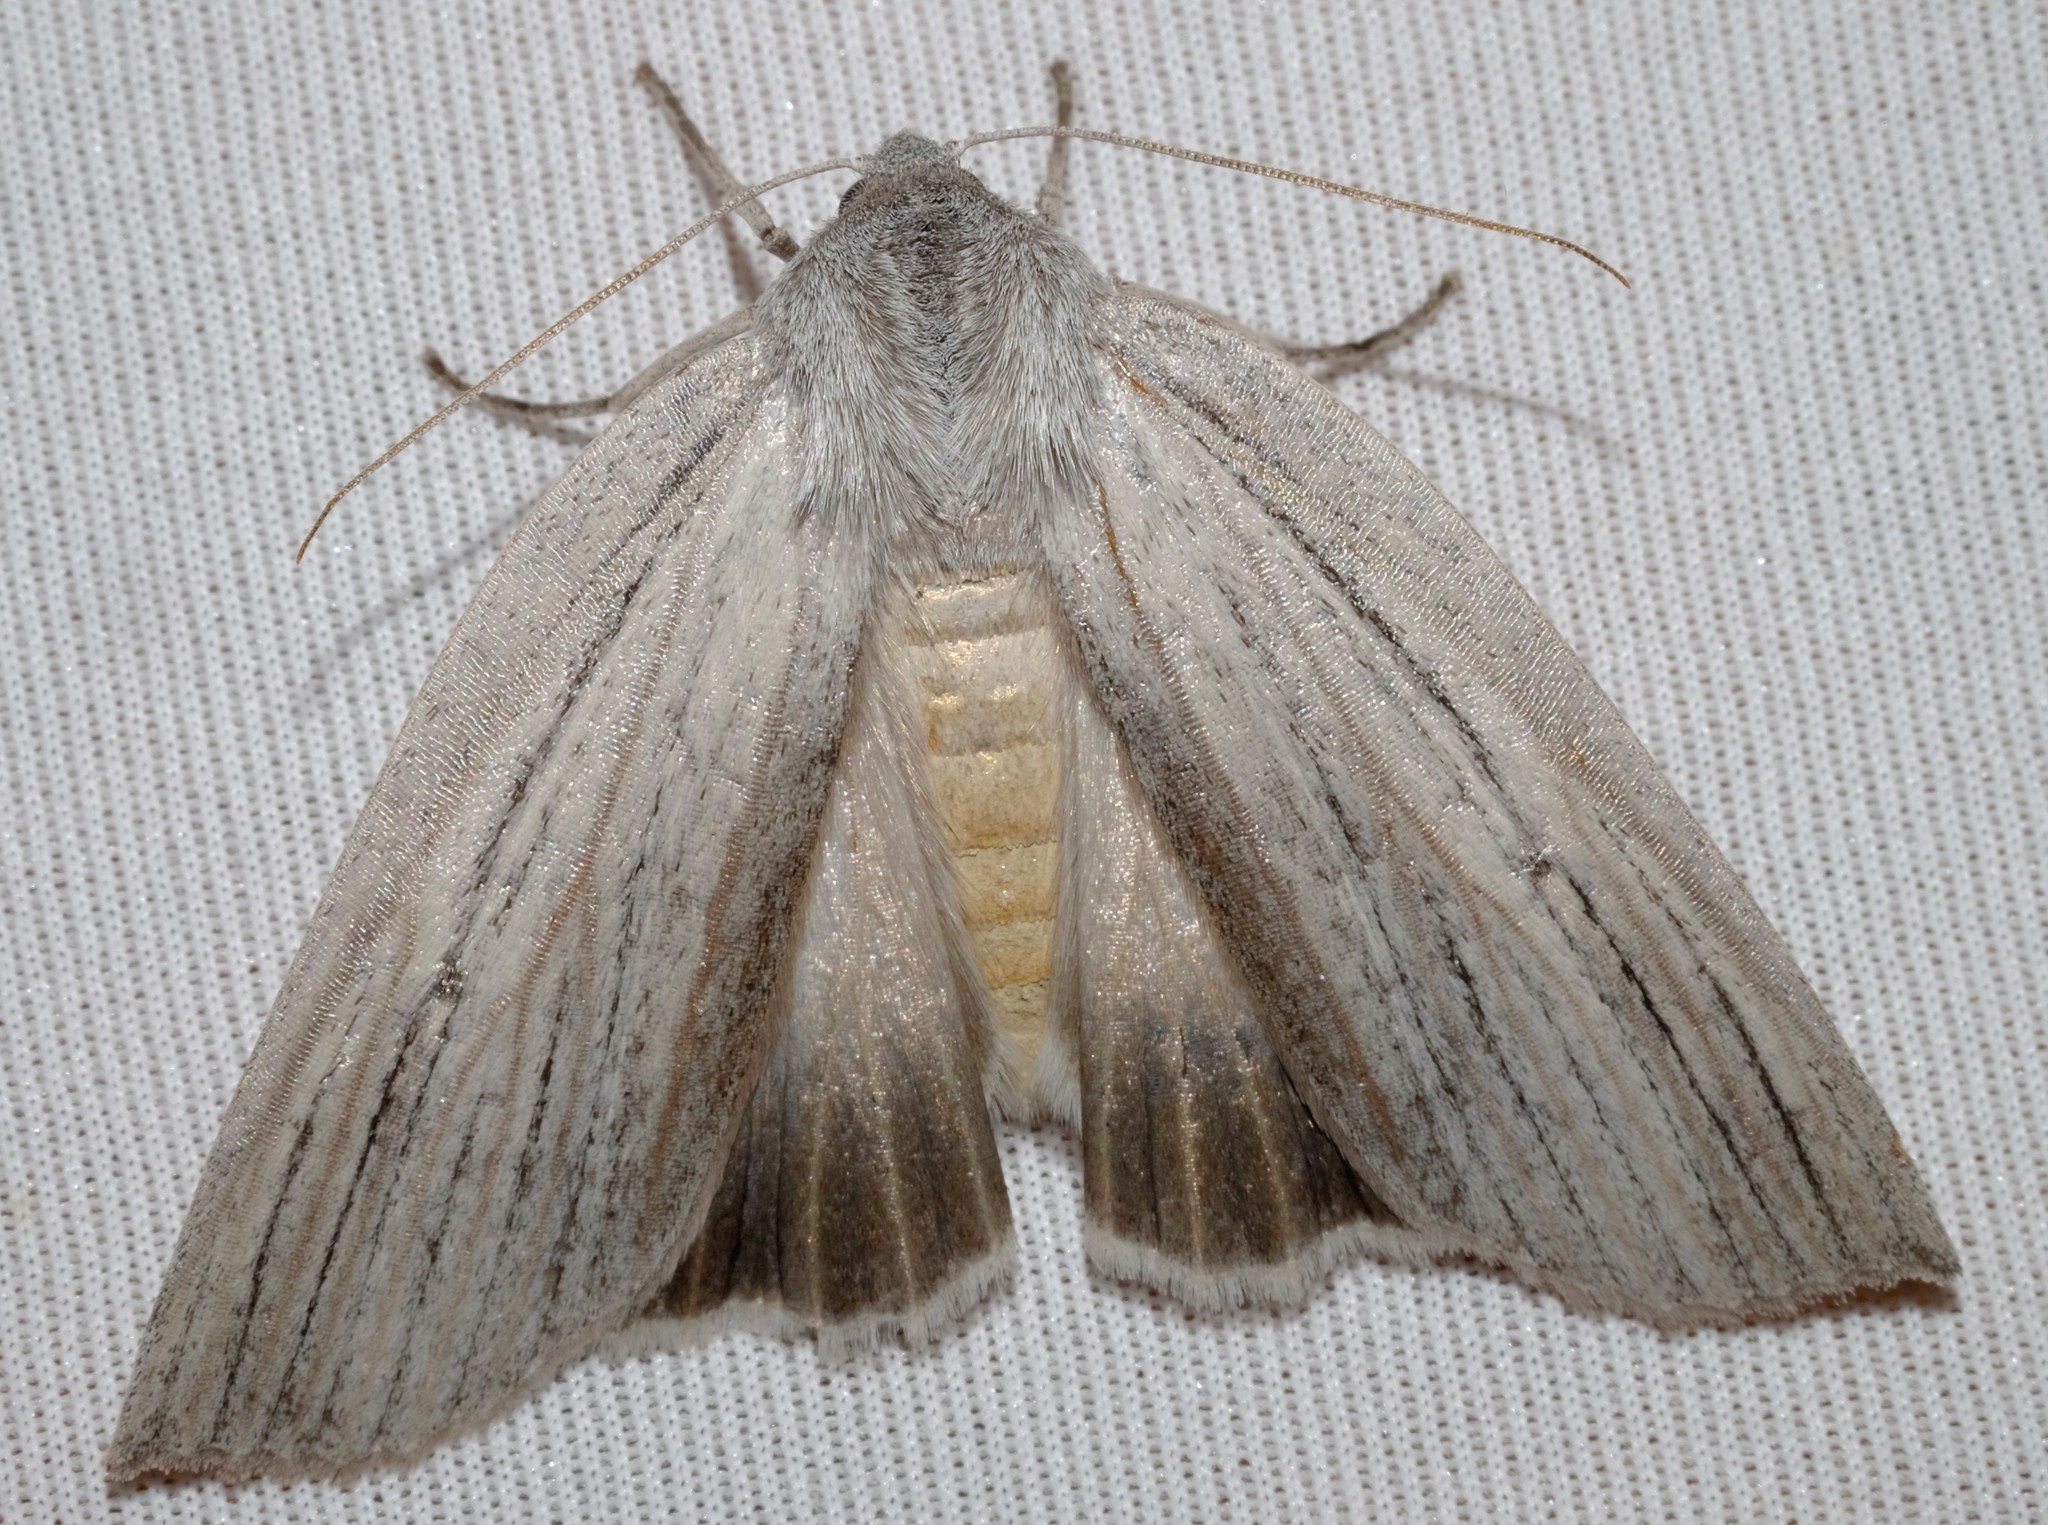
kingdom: Animalia
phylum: Arthropoda
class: Insecta
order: Lepidoptera
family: Geometridae
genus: Paralaea
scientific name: Paralaea polysticha
